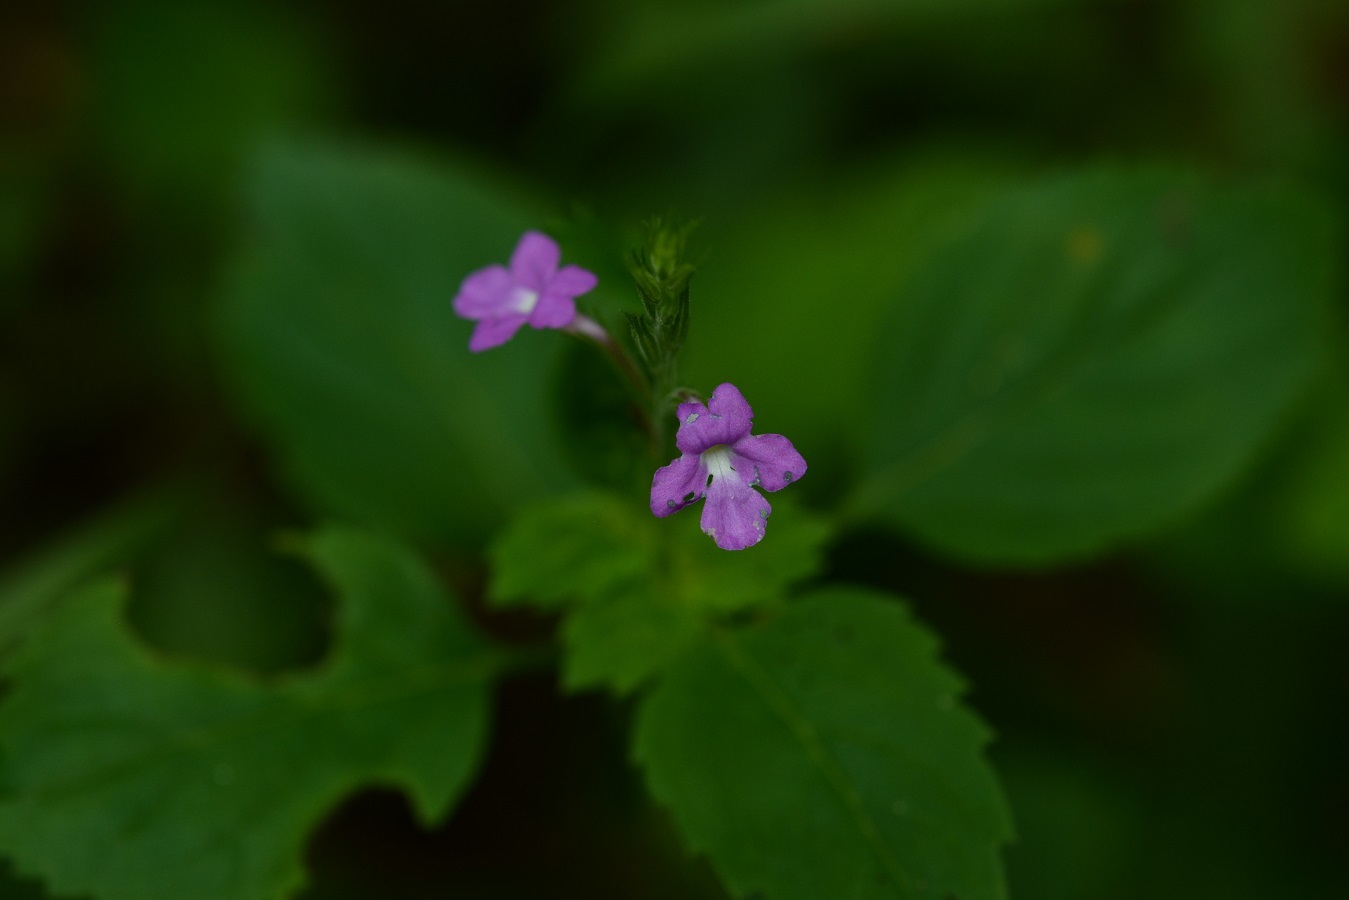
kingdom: Plantae
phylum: Tracheophyta
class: Magnoliopsida
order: Lamiales
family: Verbenaceae
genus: Bouchea
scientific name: Bouchea prismatica
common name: Vervine
